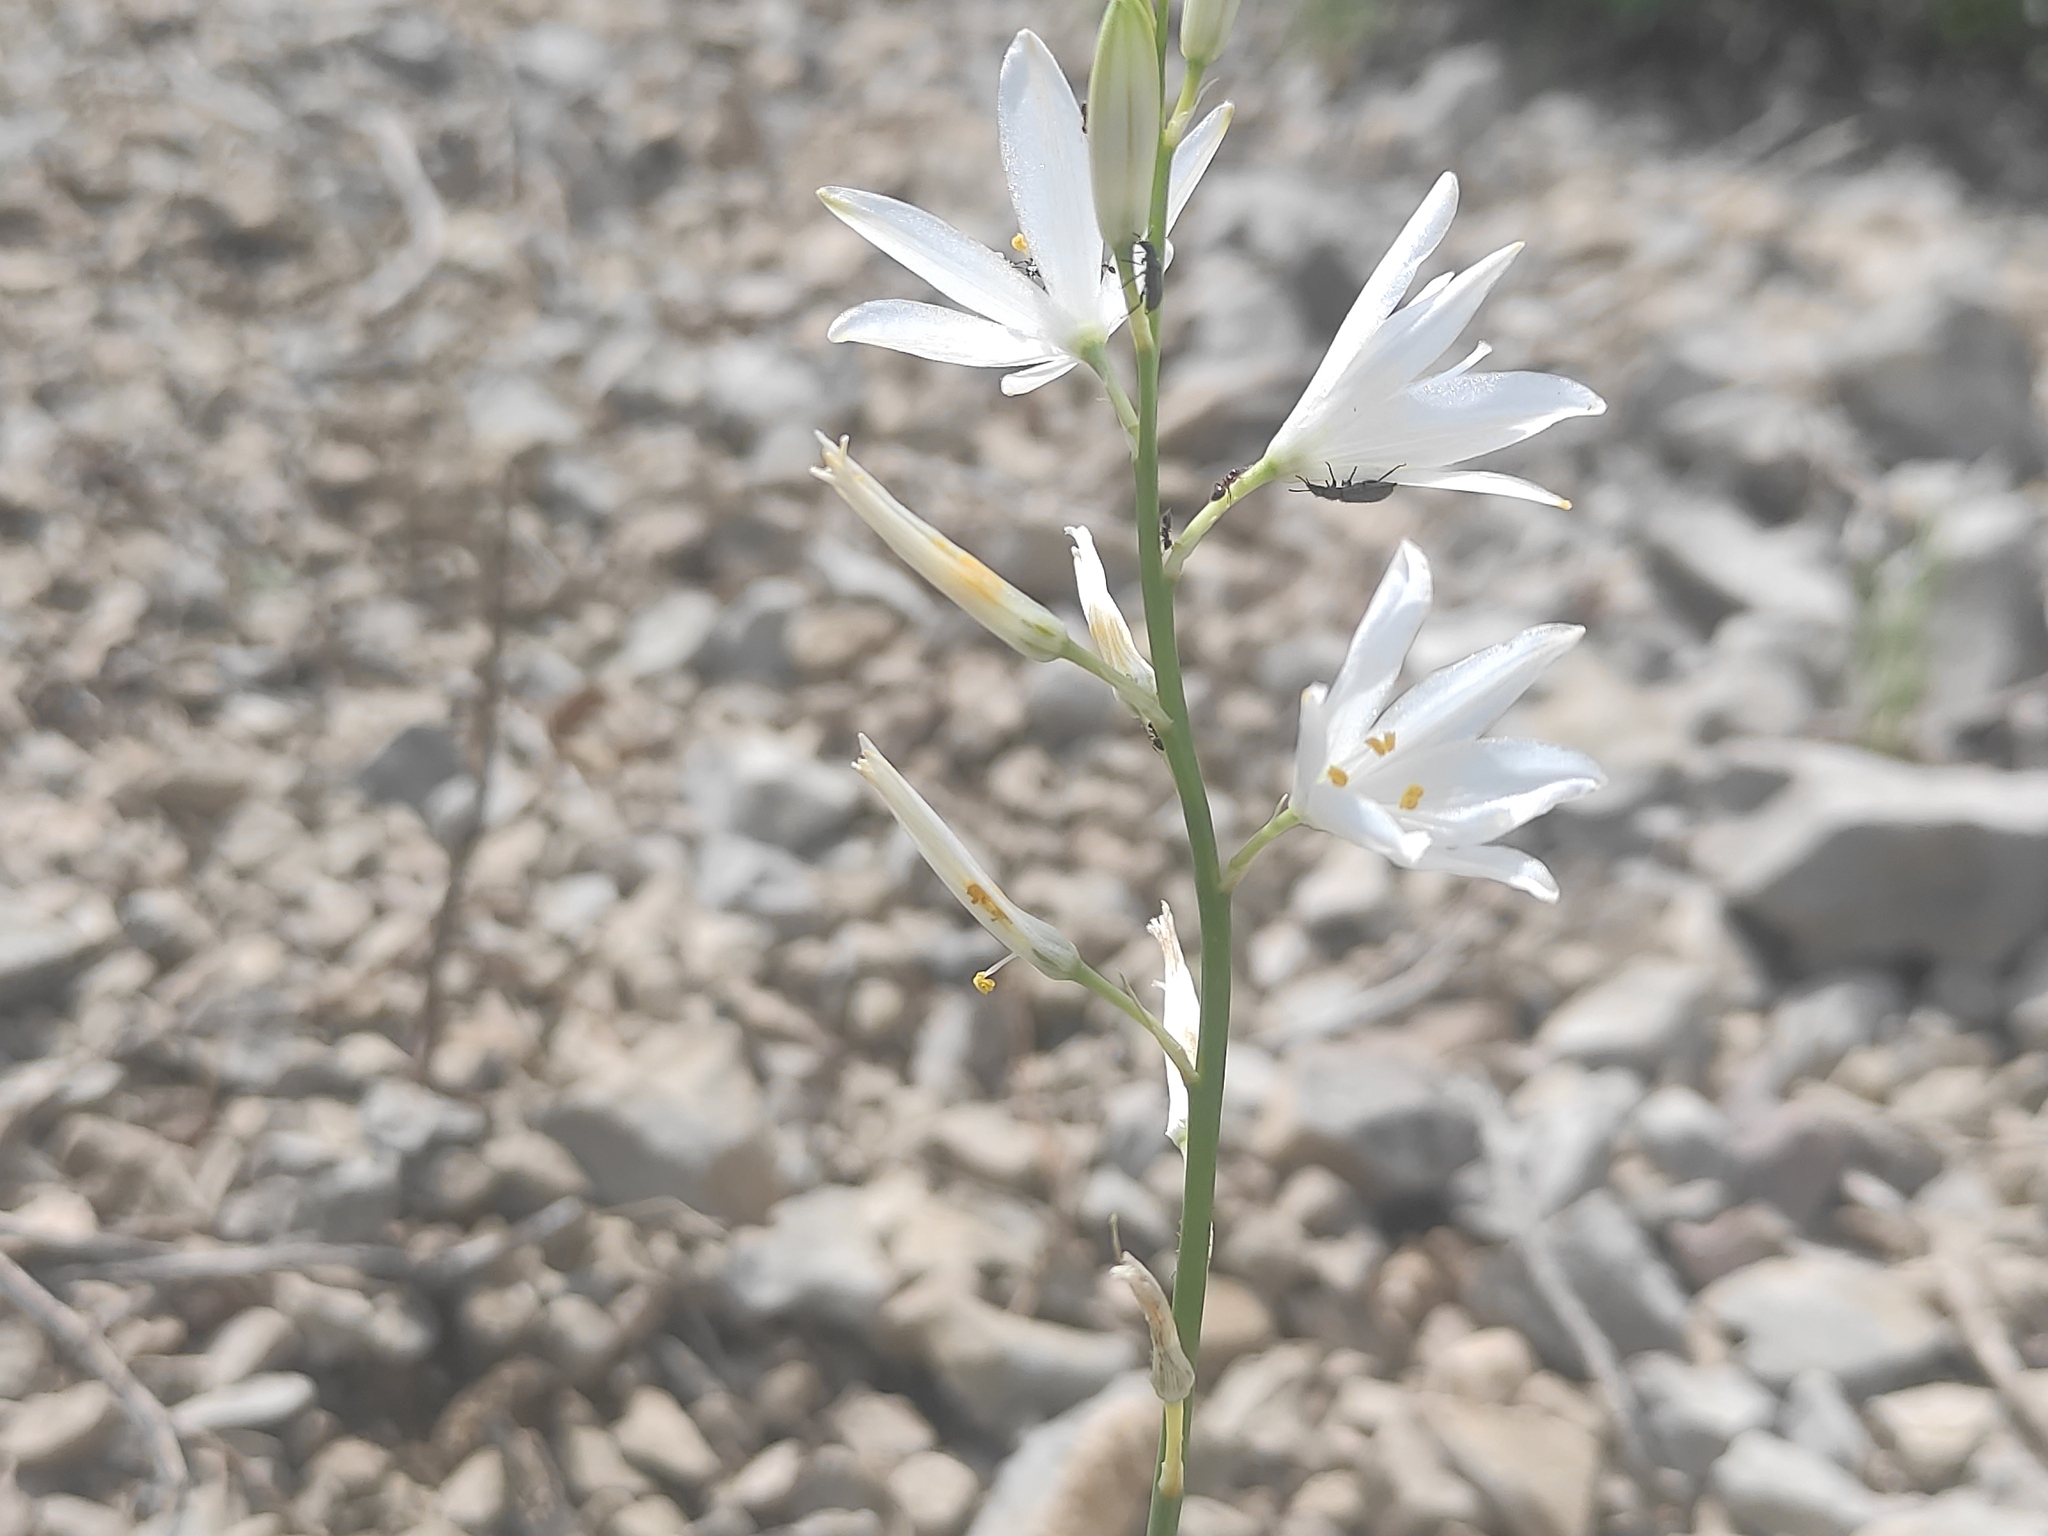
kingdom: Plantae
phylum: Tracheophyta
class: Liliopsida
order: Asparagales
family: Asparagaceae
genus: Anthericum
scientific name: Anthericum liliago
